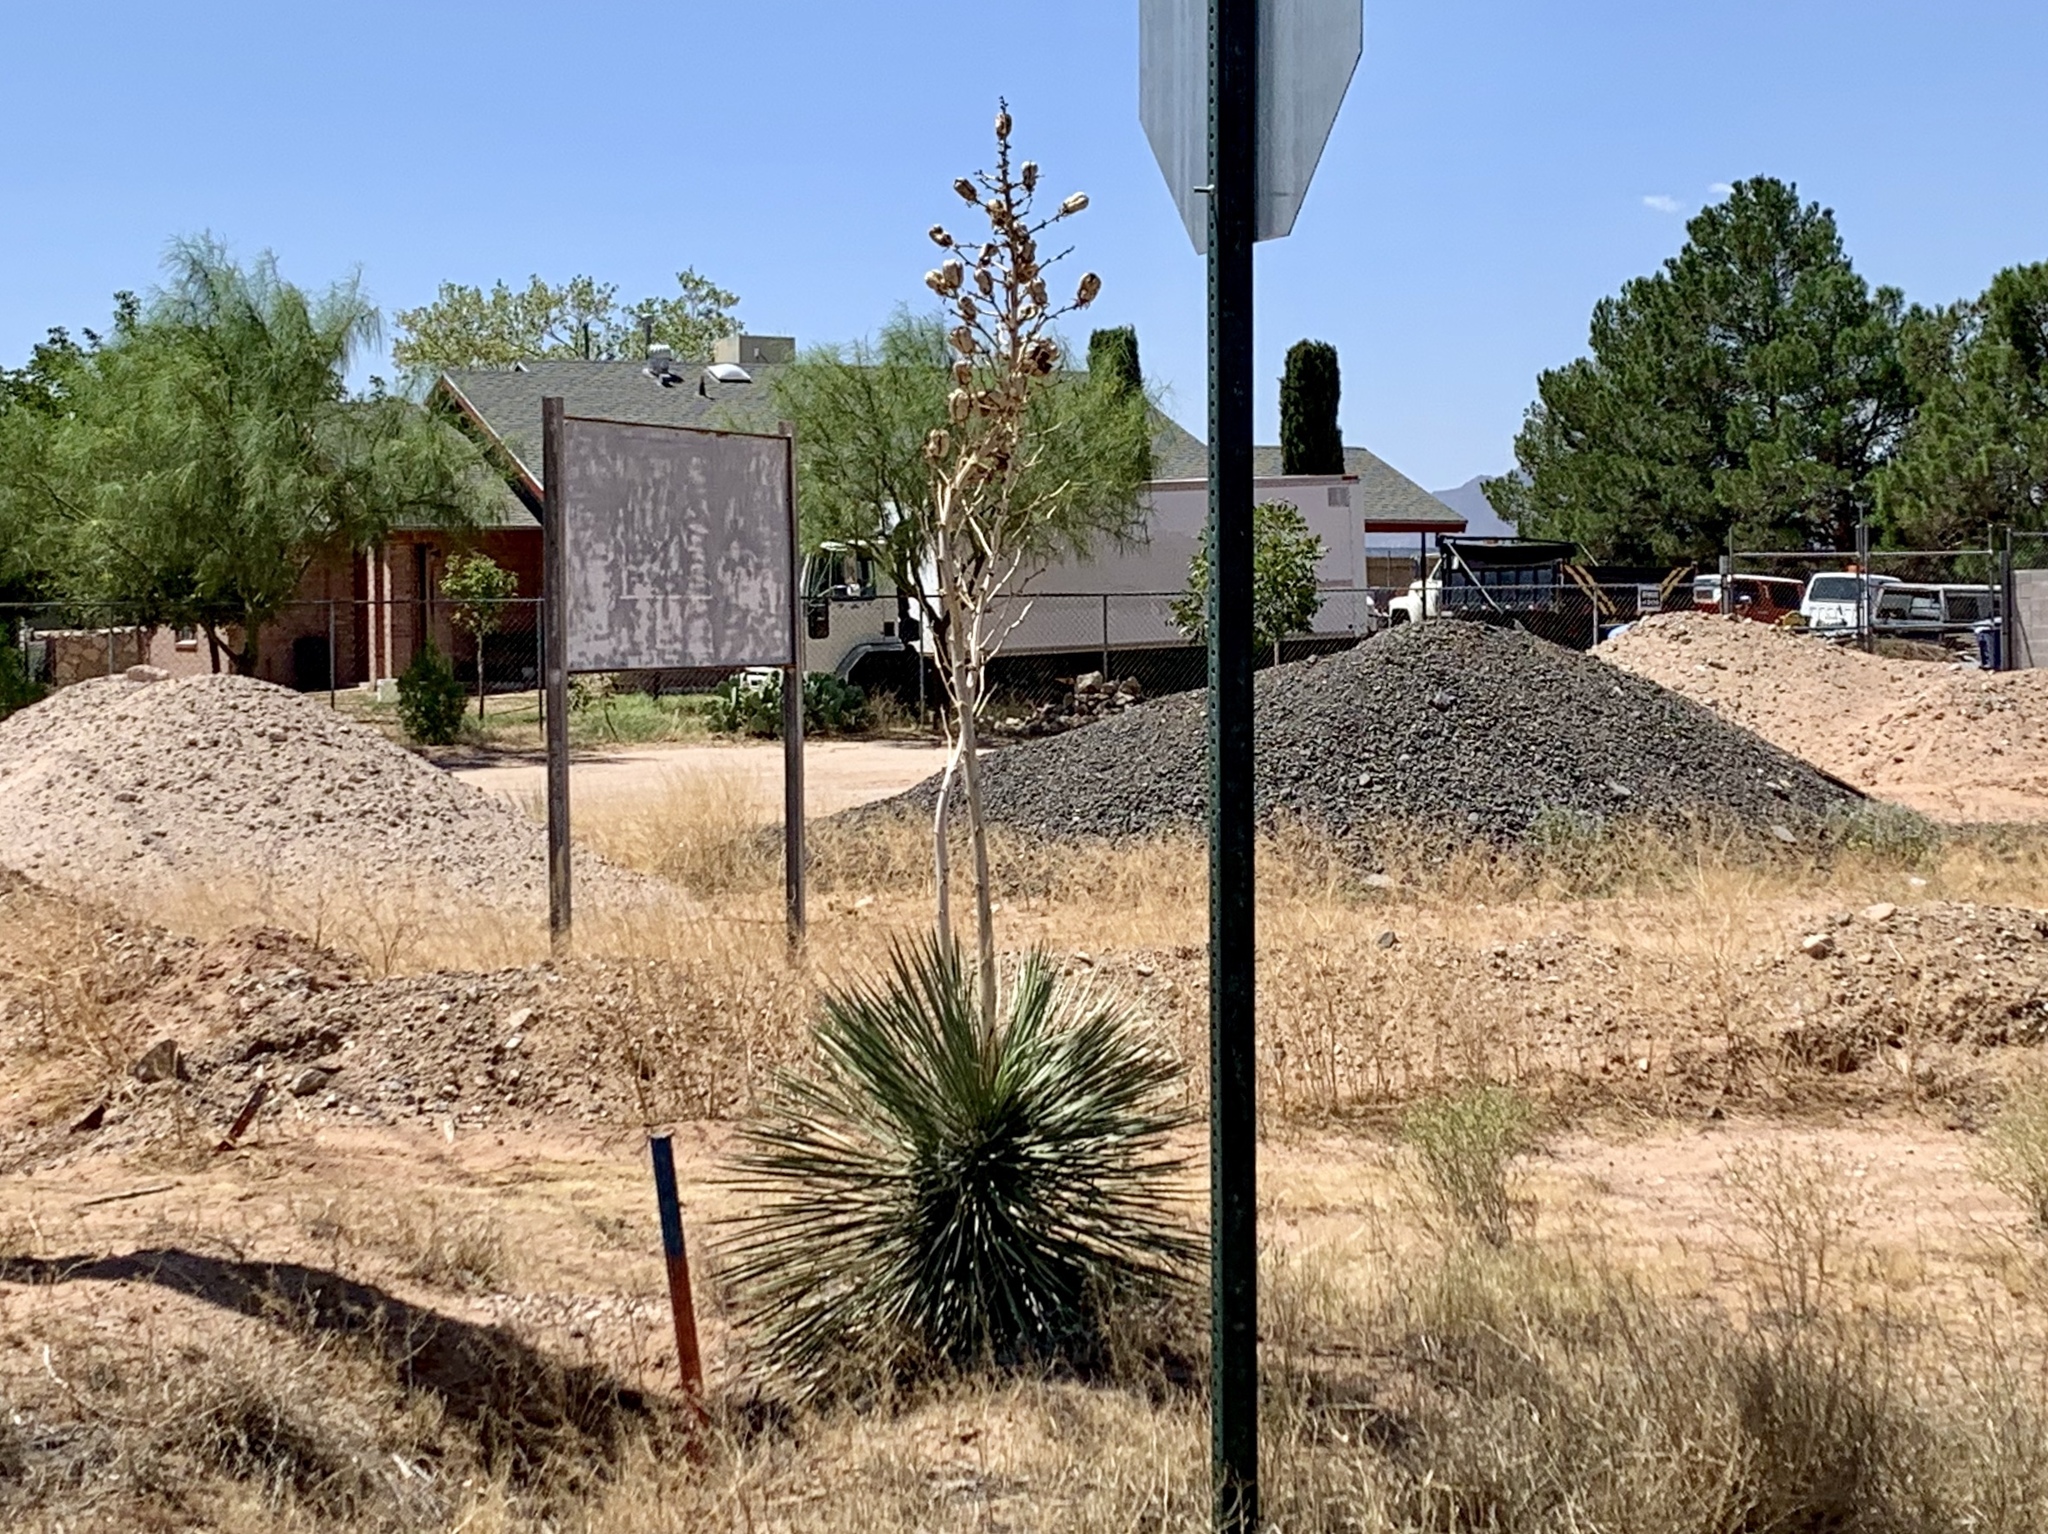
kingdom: Plantae
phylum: Tracheophyta
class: Liliopsida
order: Asparagales
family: Asparagaceae
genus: Yucca
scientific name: Yucca elata
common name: Palmella
